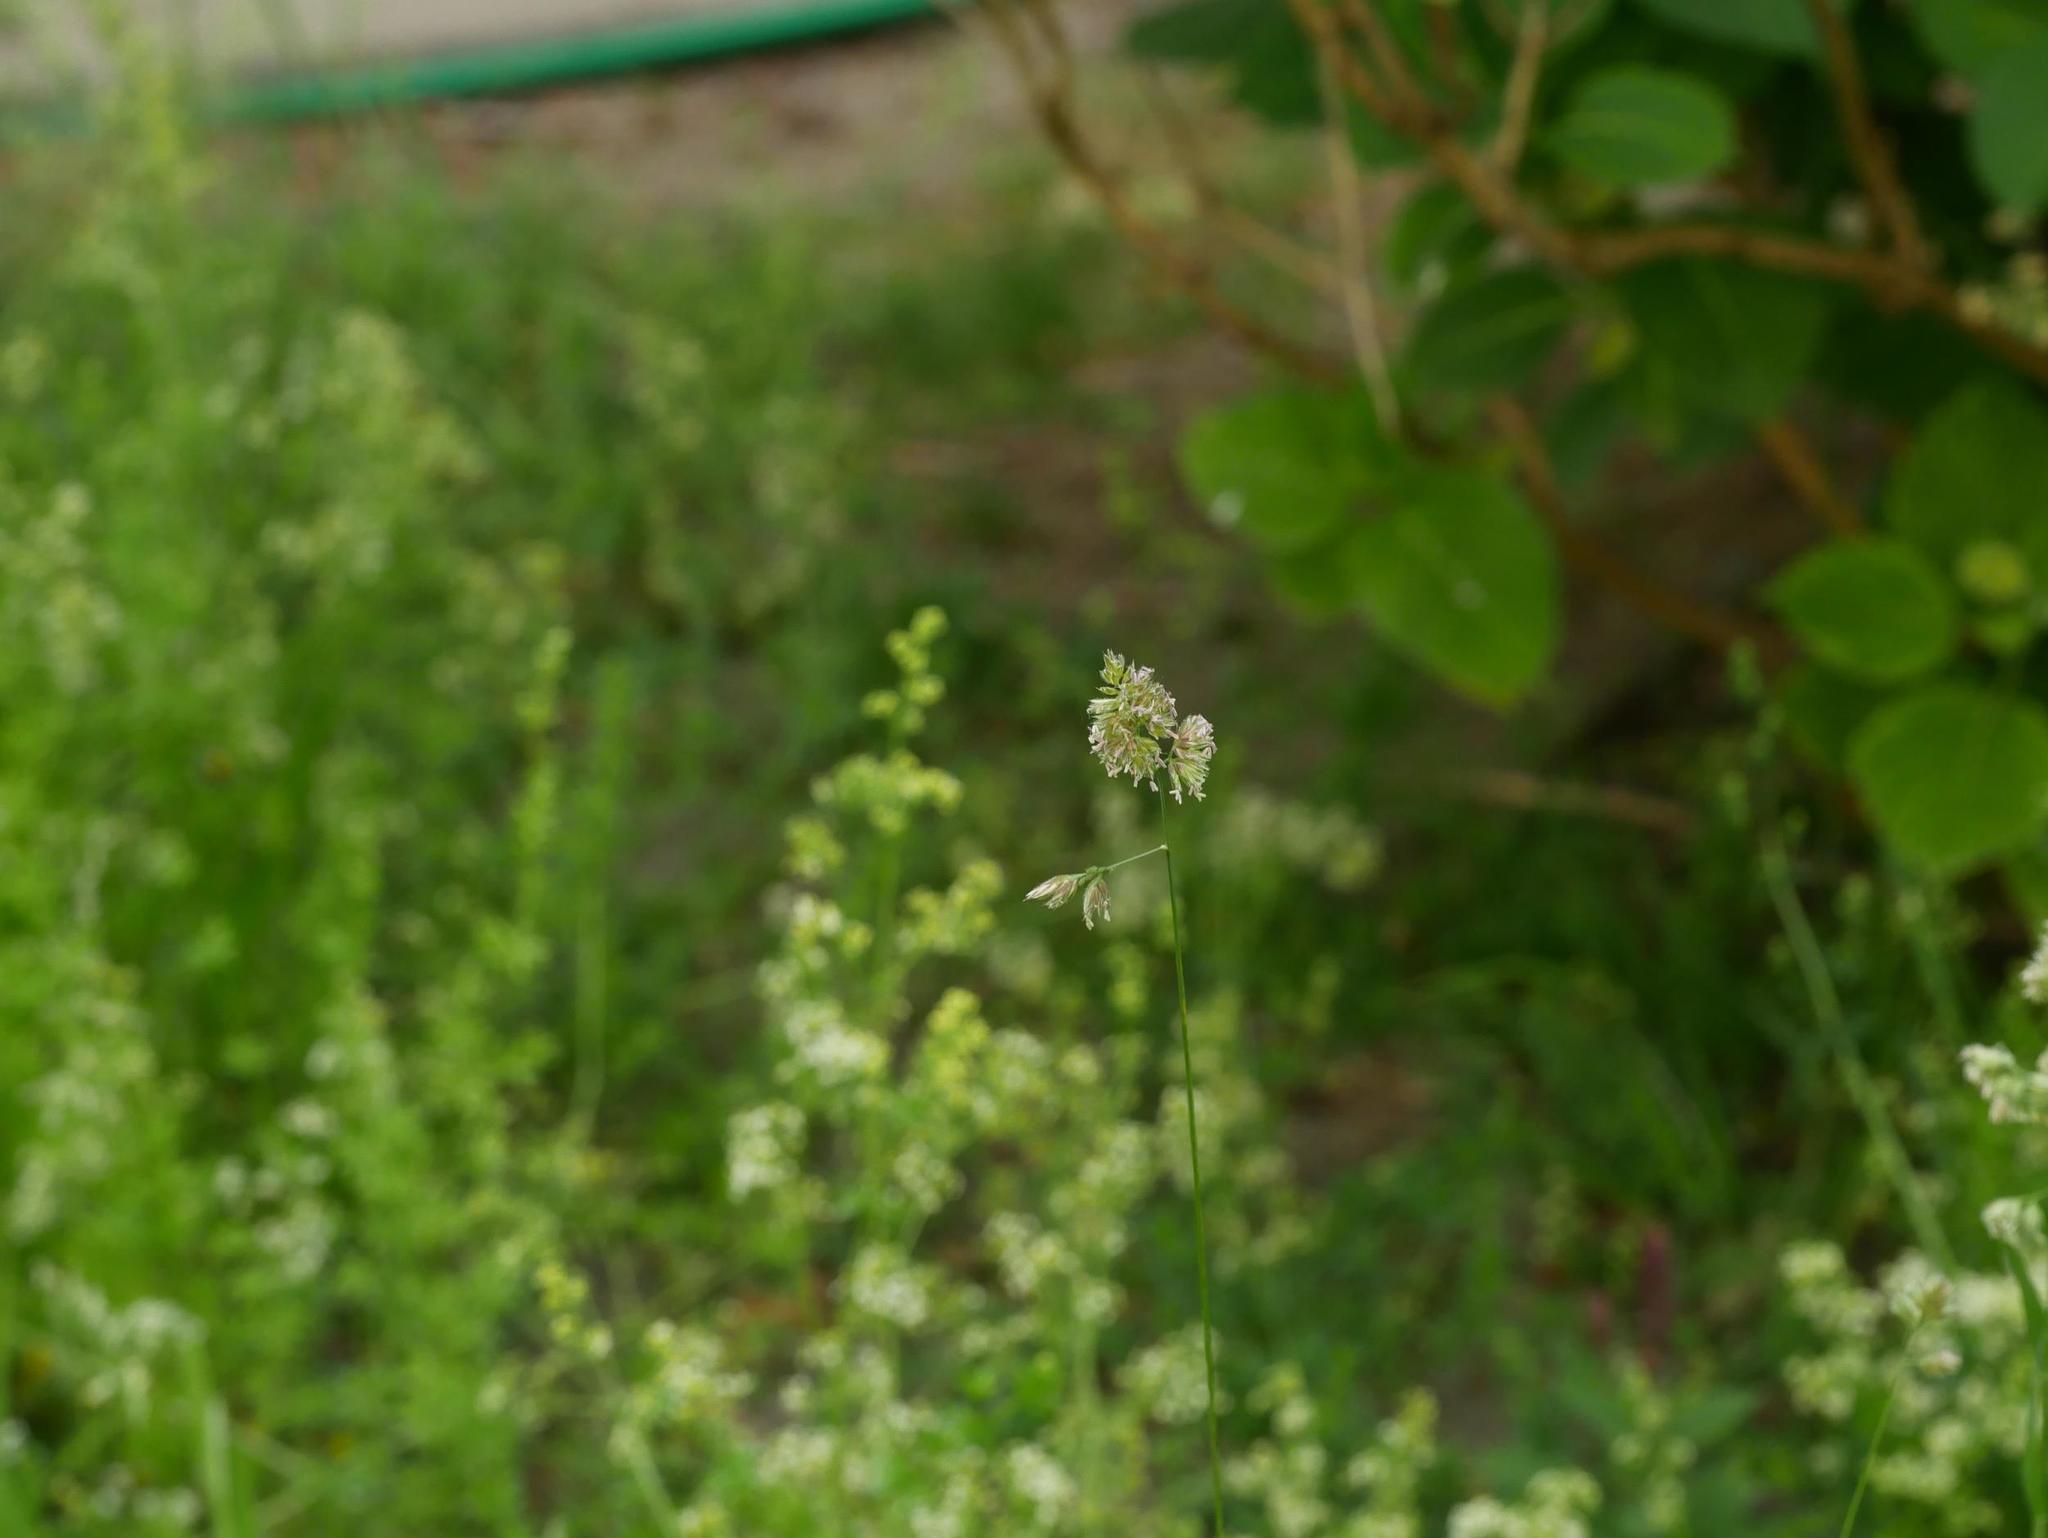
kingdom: Plantae
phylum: Tracheophyta
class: Liliopsida
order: Poales
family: Poaceae
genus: Dactylis
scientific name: Dactylis glomerata
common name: Orchardgrass
